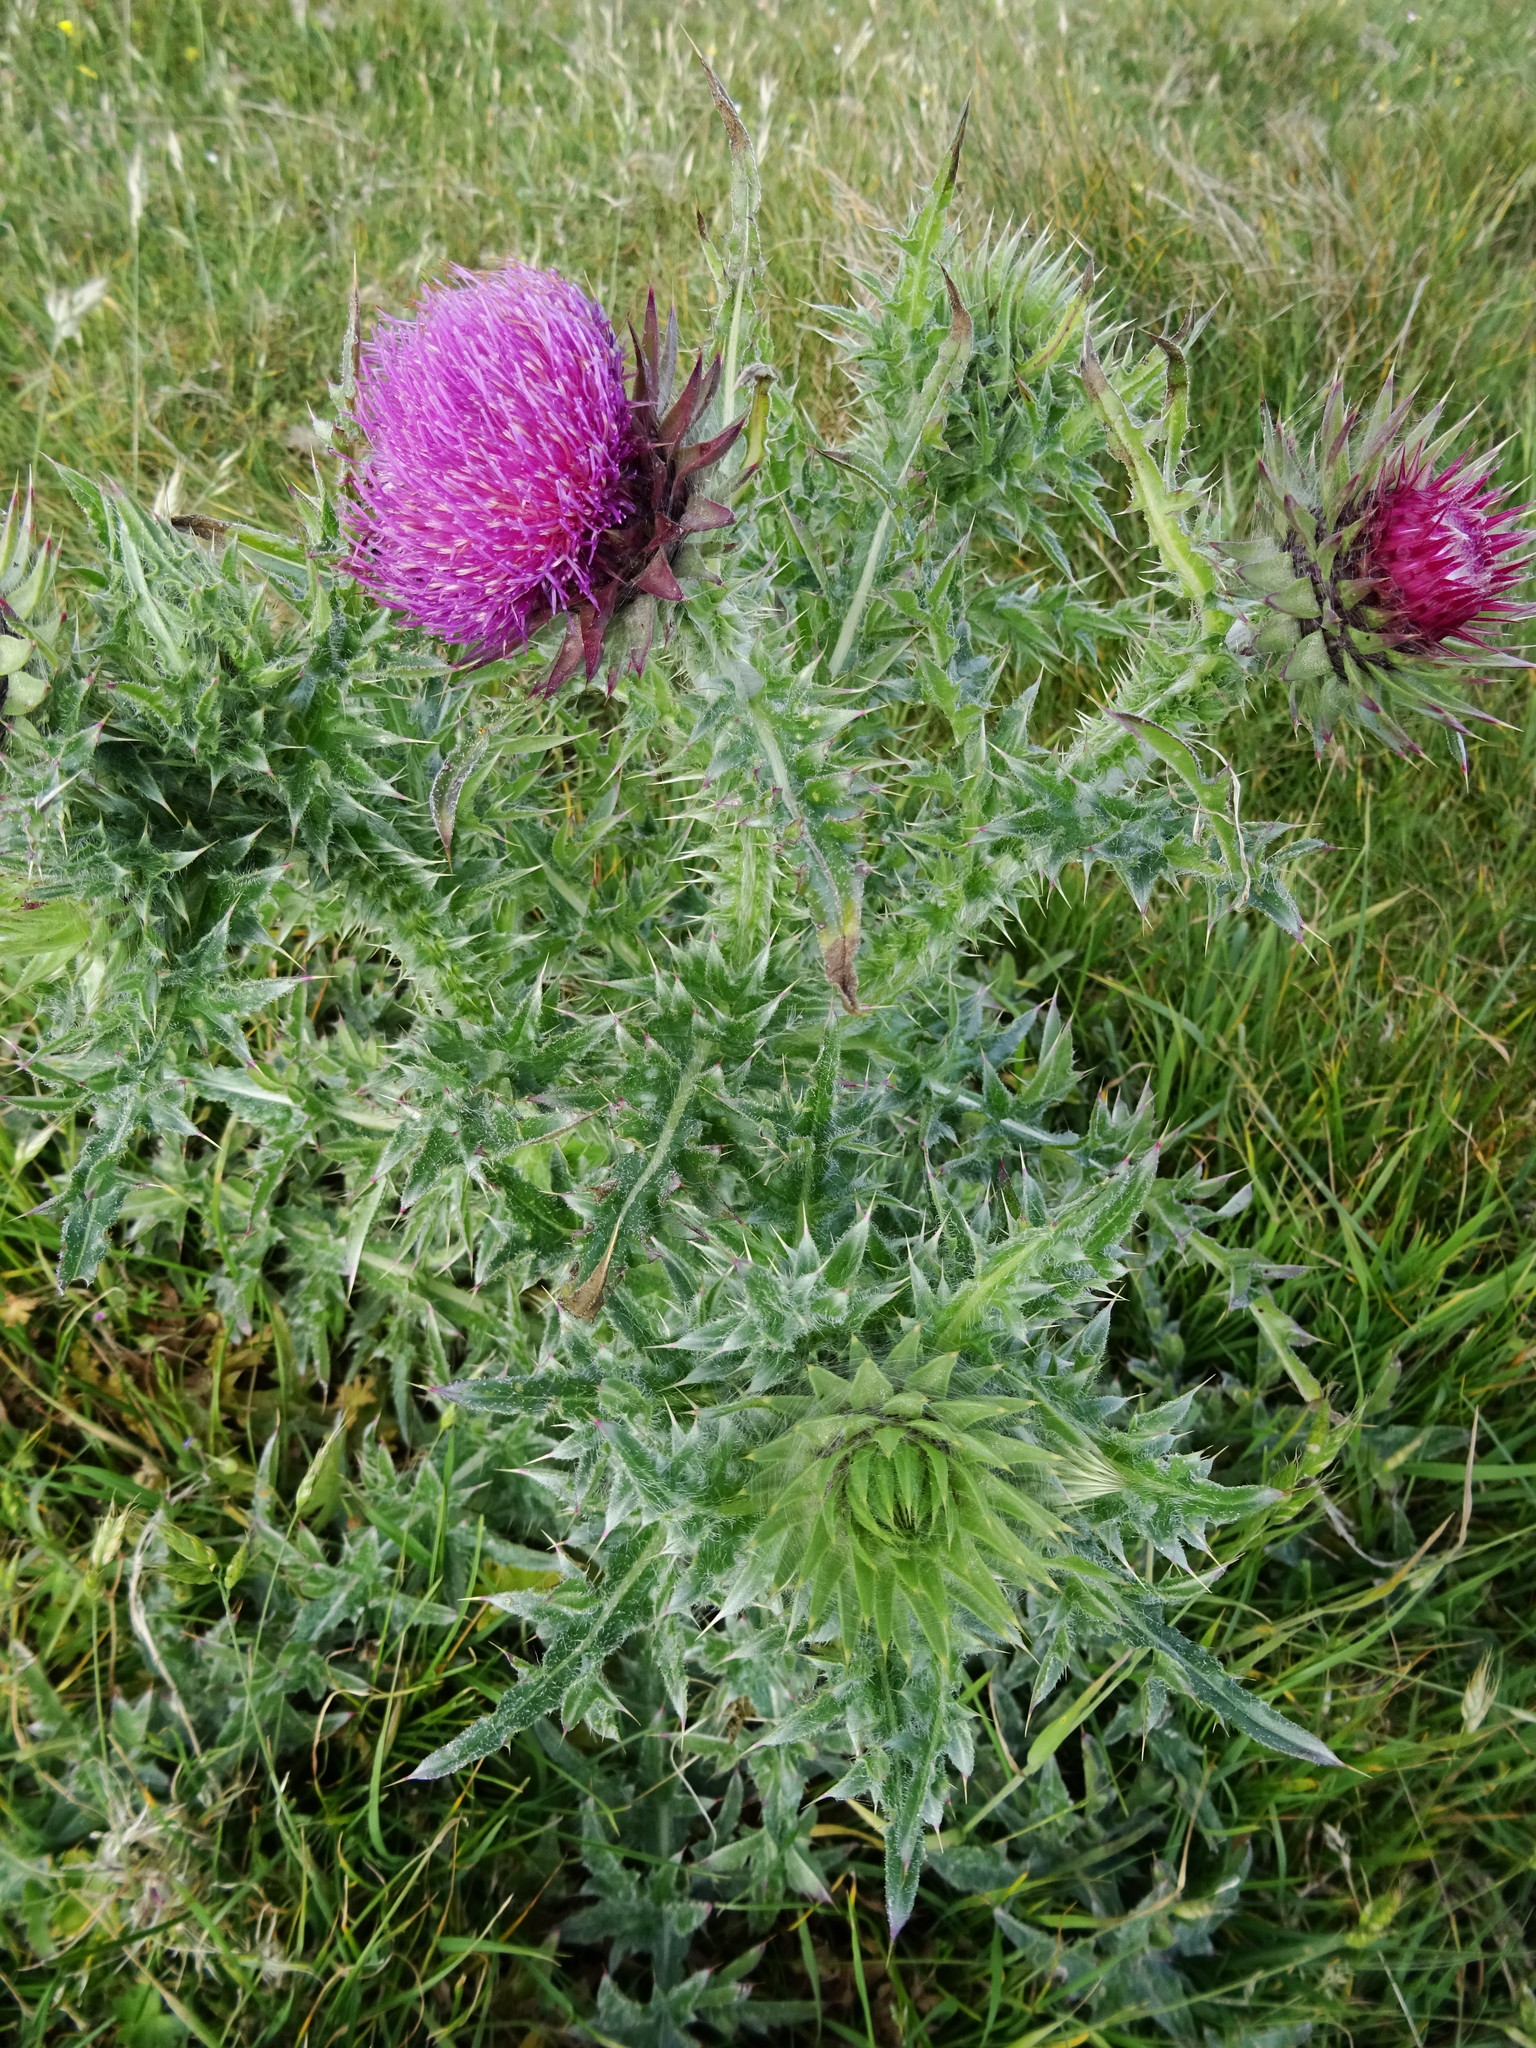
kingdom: Plantae
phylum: Tracheophyta
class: Magnoliopsida
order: Asterales
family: Asteraceae
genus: Carduus
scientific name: Carduus nutans
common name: Musk thistle
